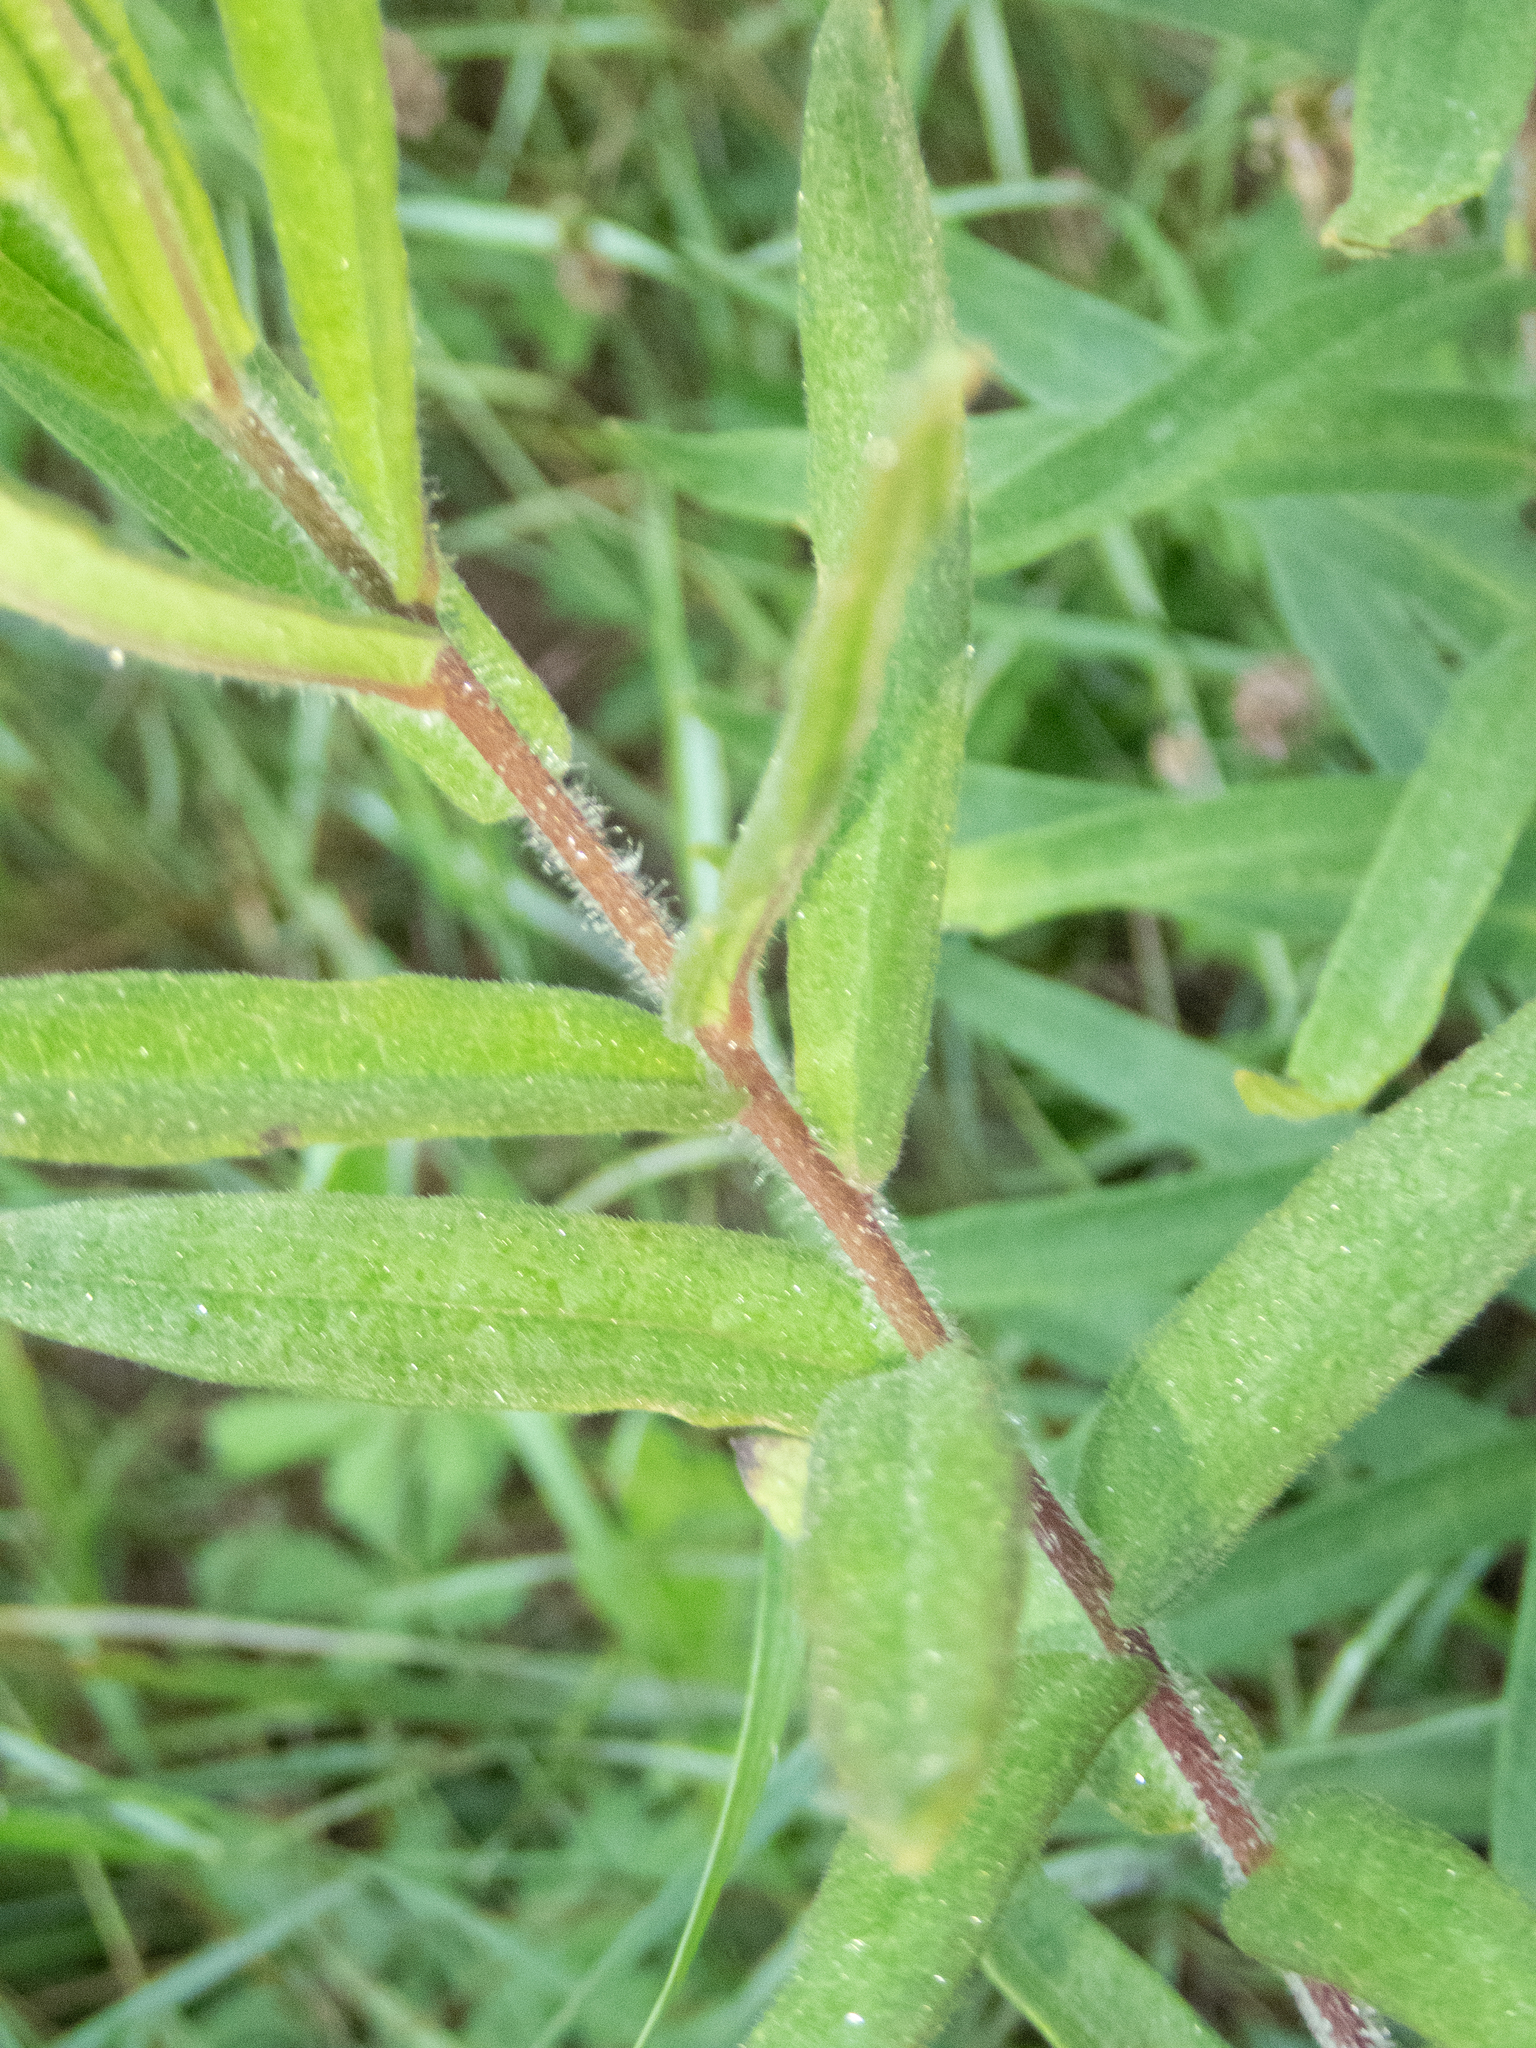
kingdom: Plantae
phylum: Tracheophyta
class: Magnoliopsida
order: Gentianales
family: Apocynaceae
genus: Asclepias
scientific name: Asclepias tuberosa
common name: Butterfly milkweed
